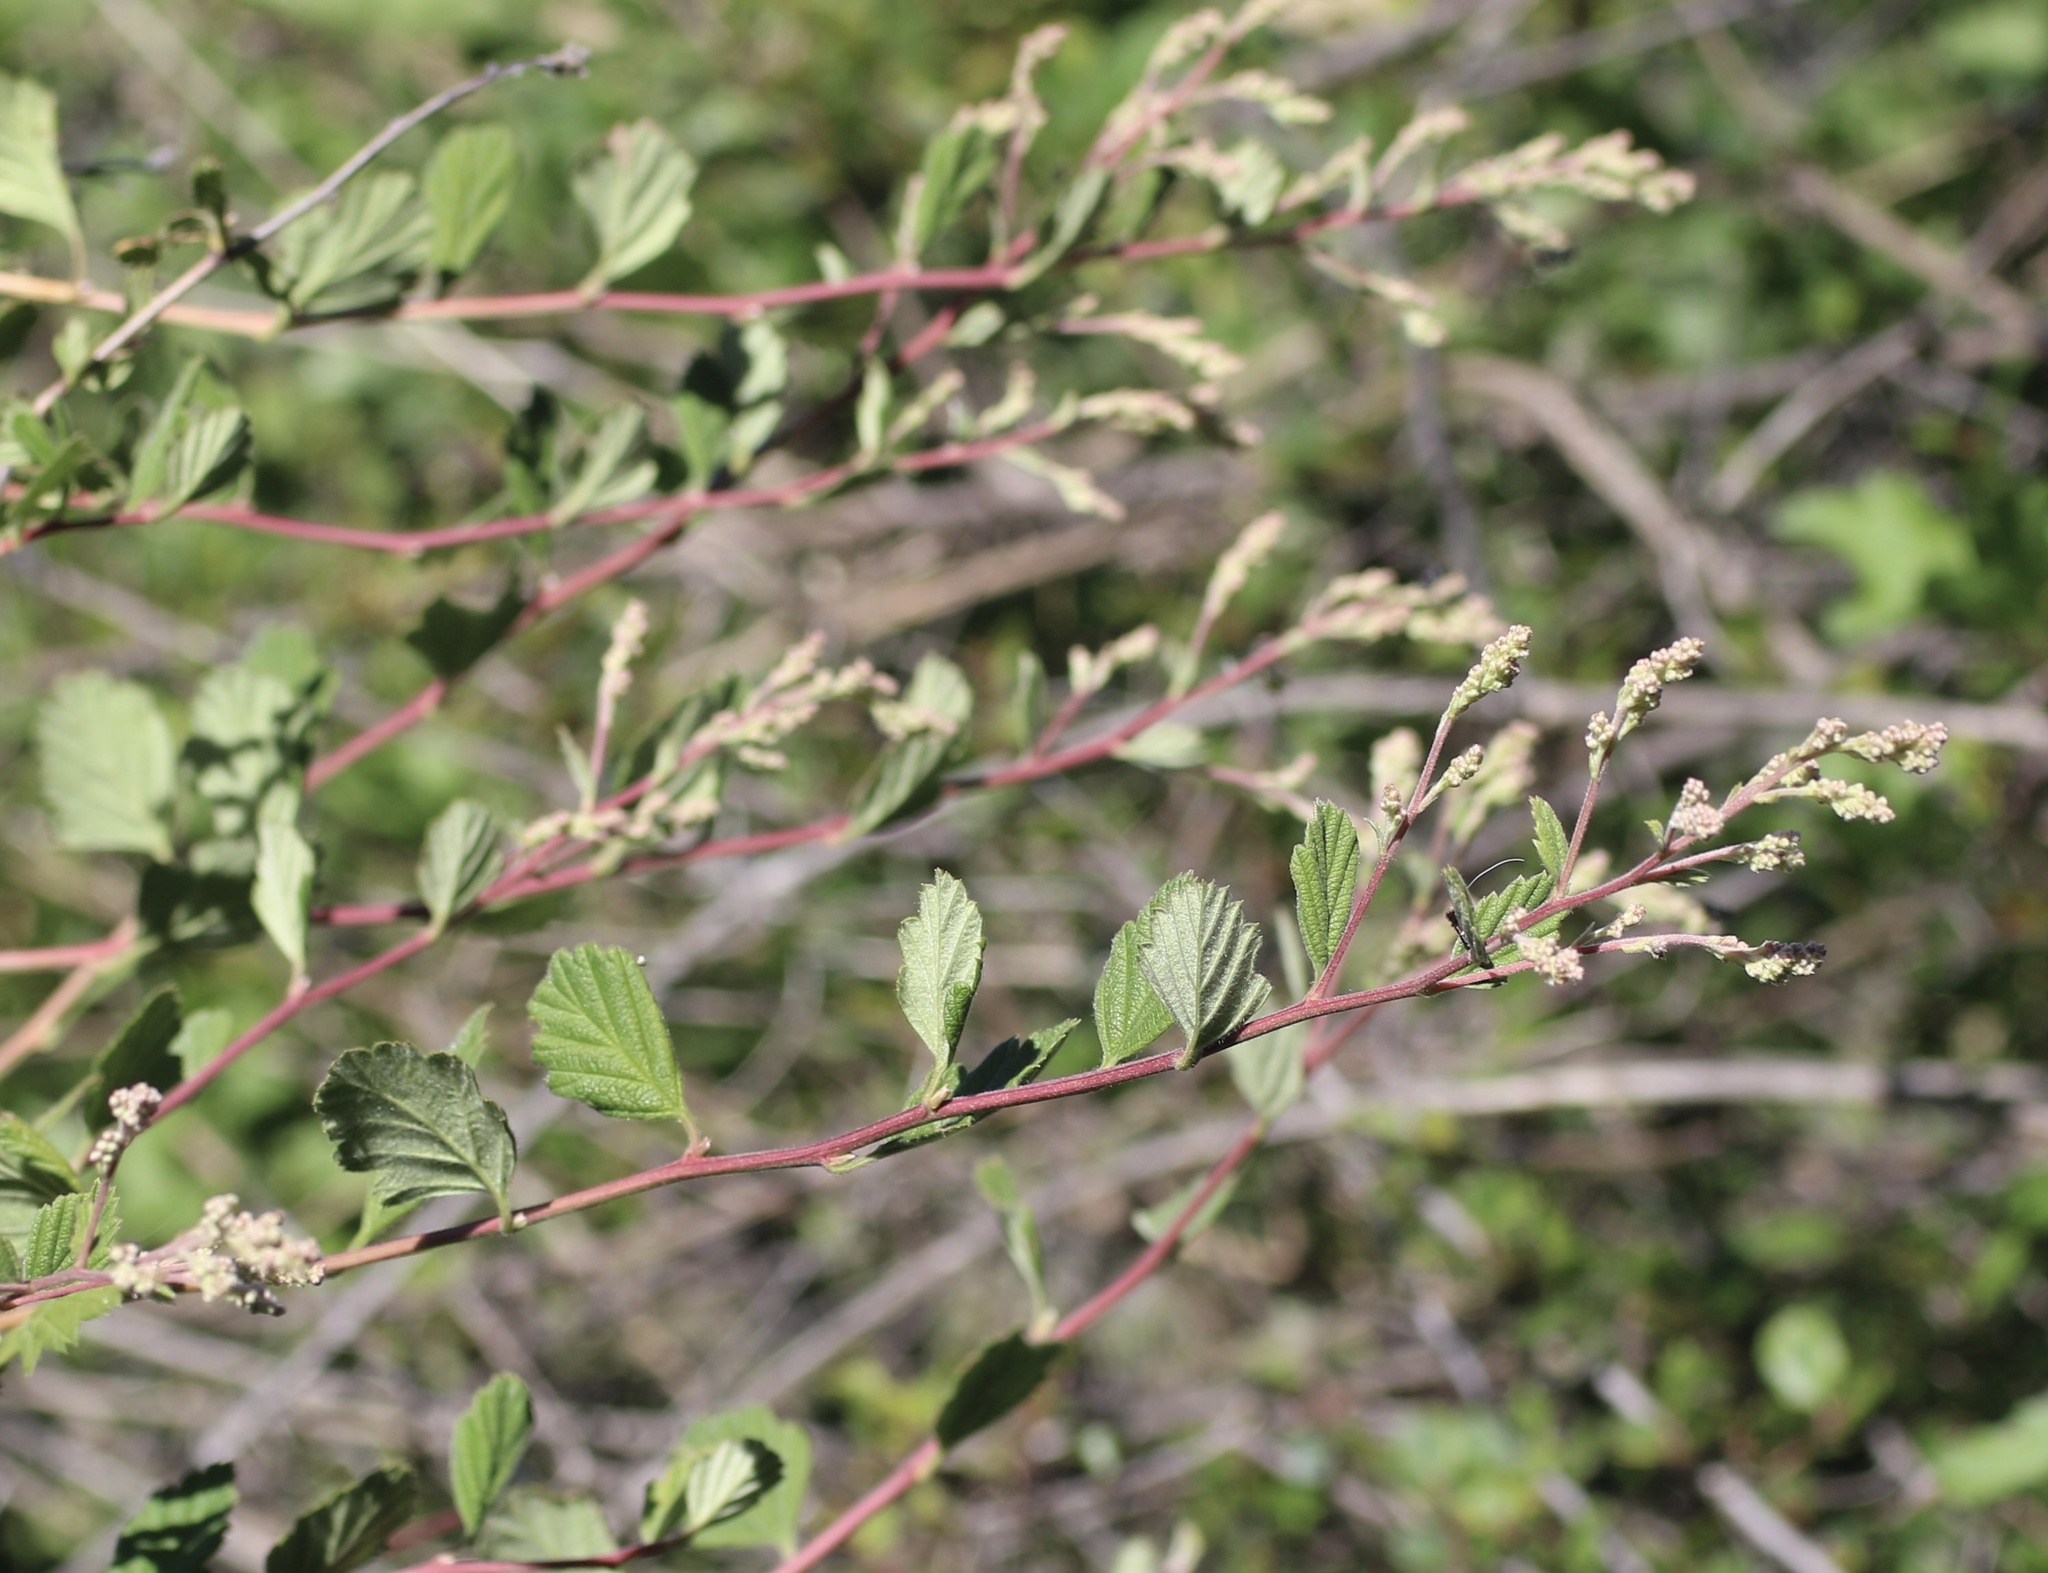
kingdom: Plantae
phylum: Tracheophyta
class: Magnoliopsida
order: Rosales
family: Rosaceae
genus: Holodiscus
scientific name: Holodiscus discolor
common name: Oceanspray
